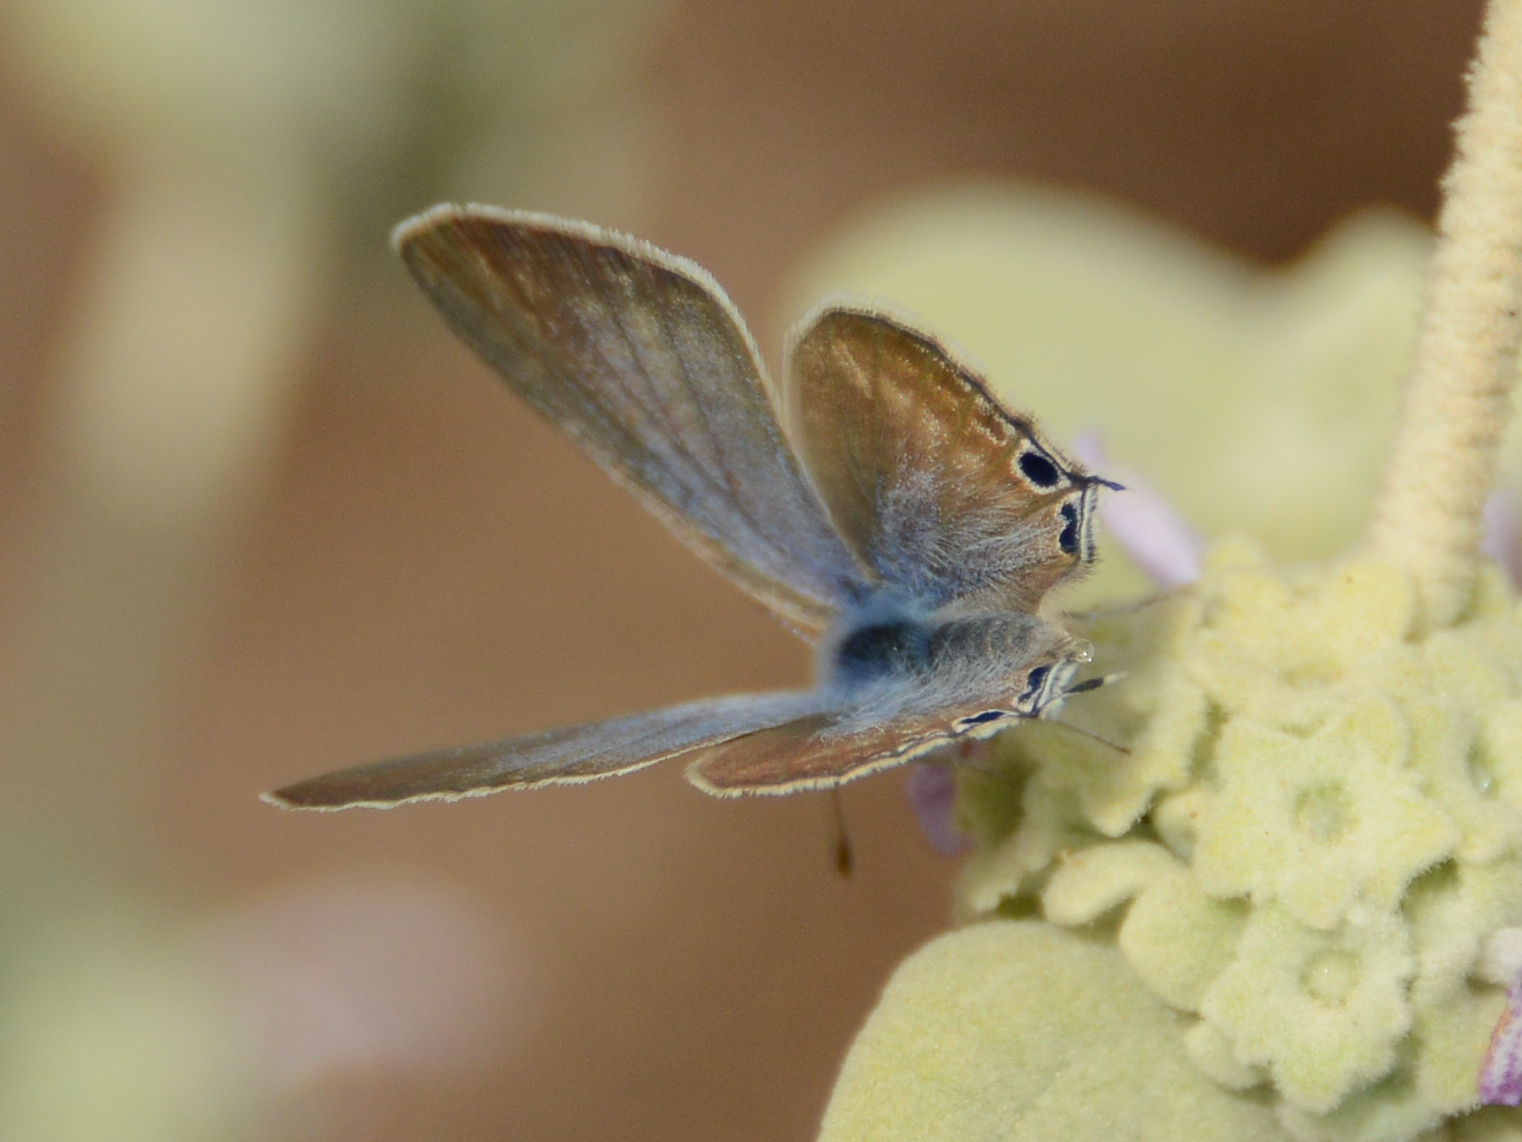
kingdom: Animalia
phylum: Arthropoda
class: Insecta
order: Lepidoptera
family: Lycaenidae
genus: Lampides
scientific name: Lampides boeticus
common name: Long-tailed blue
